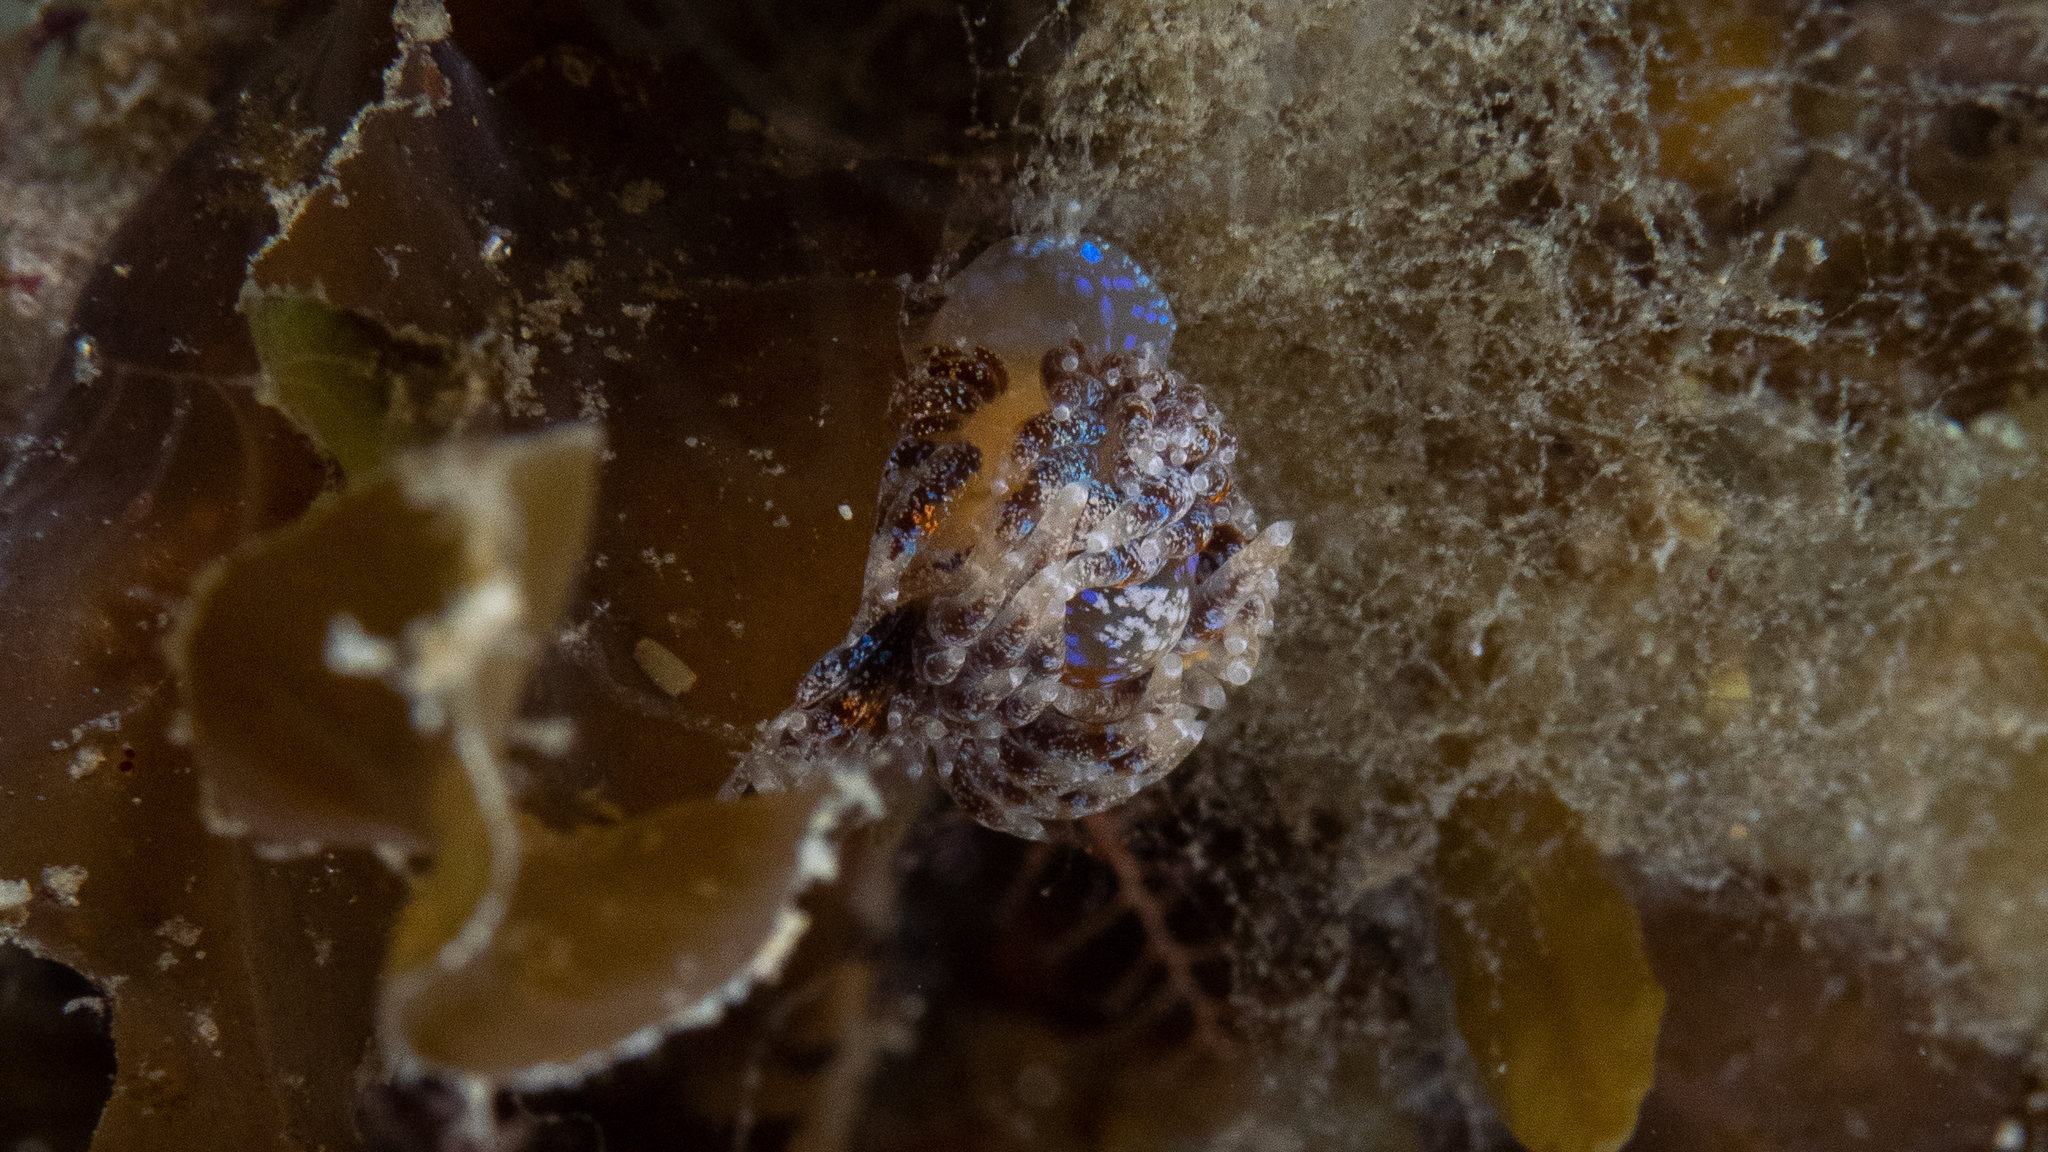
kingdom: Animalia
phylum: Mollusca
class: Gastropoda
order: Nudibranchia
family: Facelinidae
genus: Austraeolis
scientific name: Austraeolis ornata
